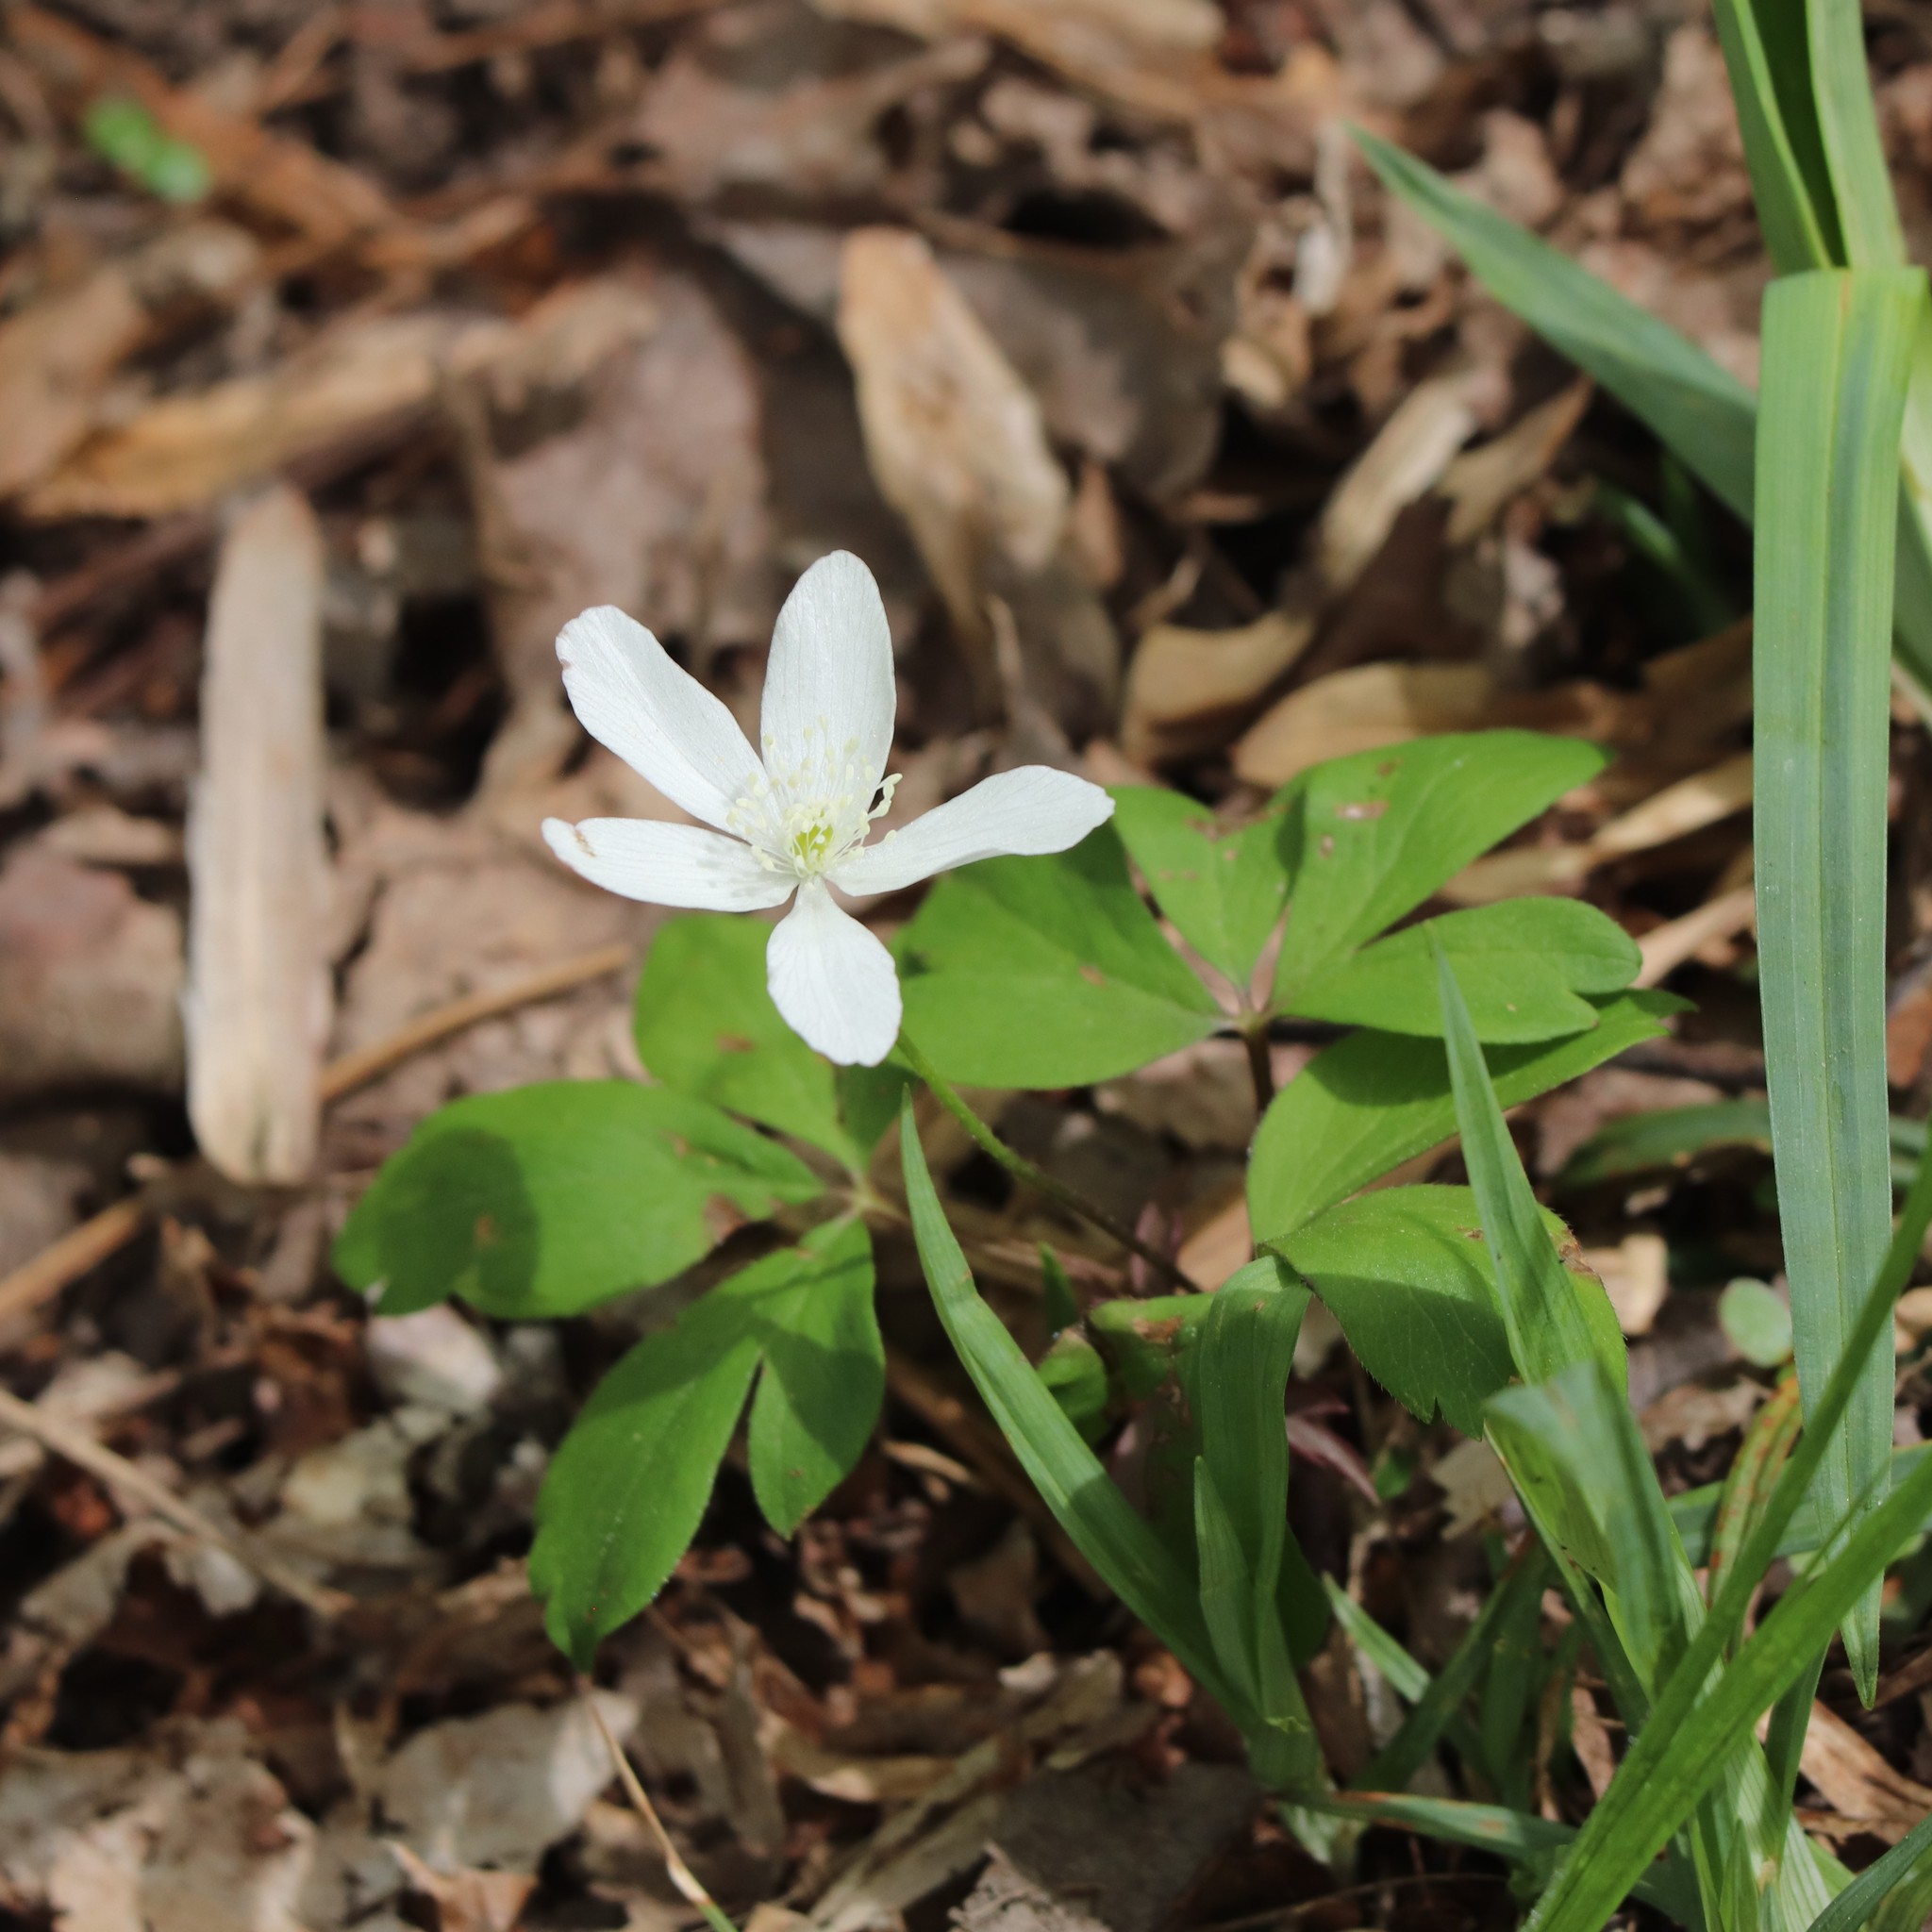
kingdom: Plantae
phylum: Tracheophyta
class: Magnoliopsida
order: Ranunculales
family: Ranunculaceae
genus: Anemone
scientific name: Anemone quinquefolia
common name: Wood anemone
